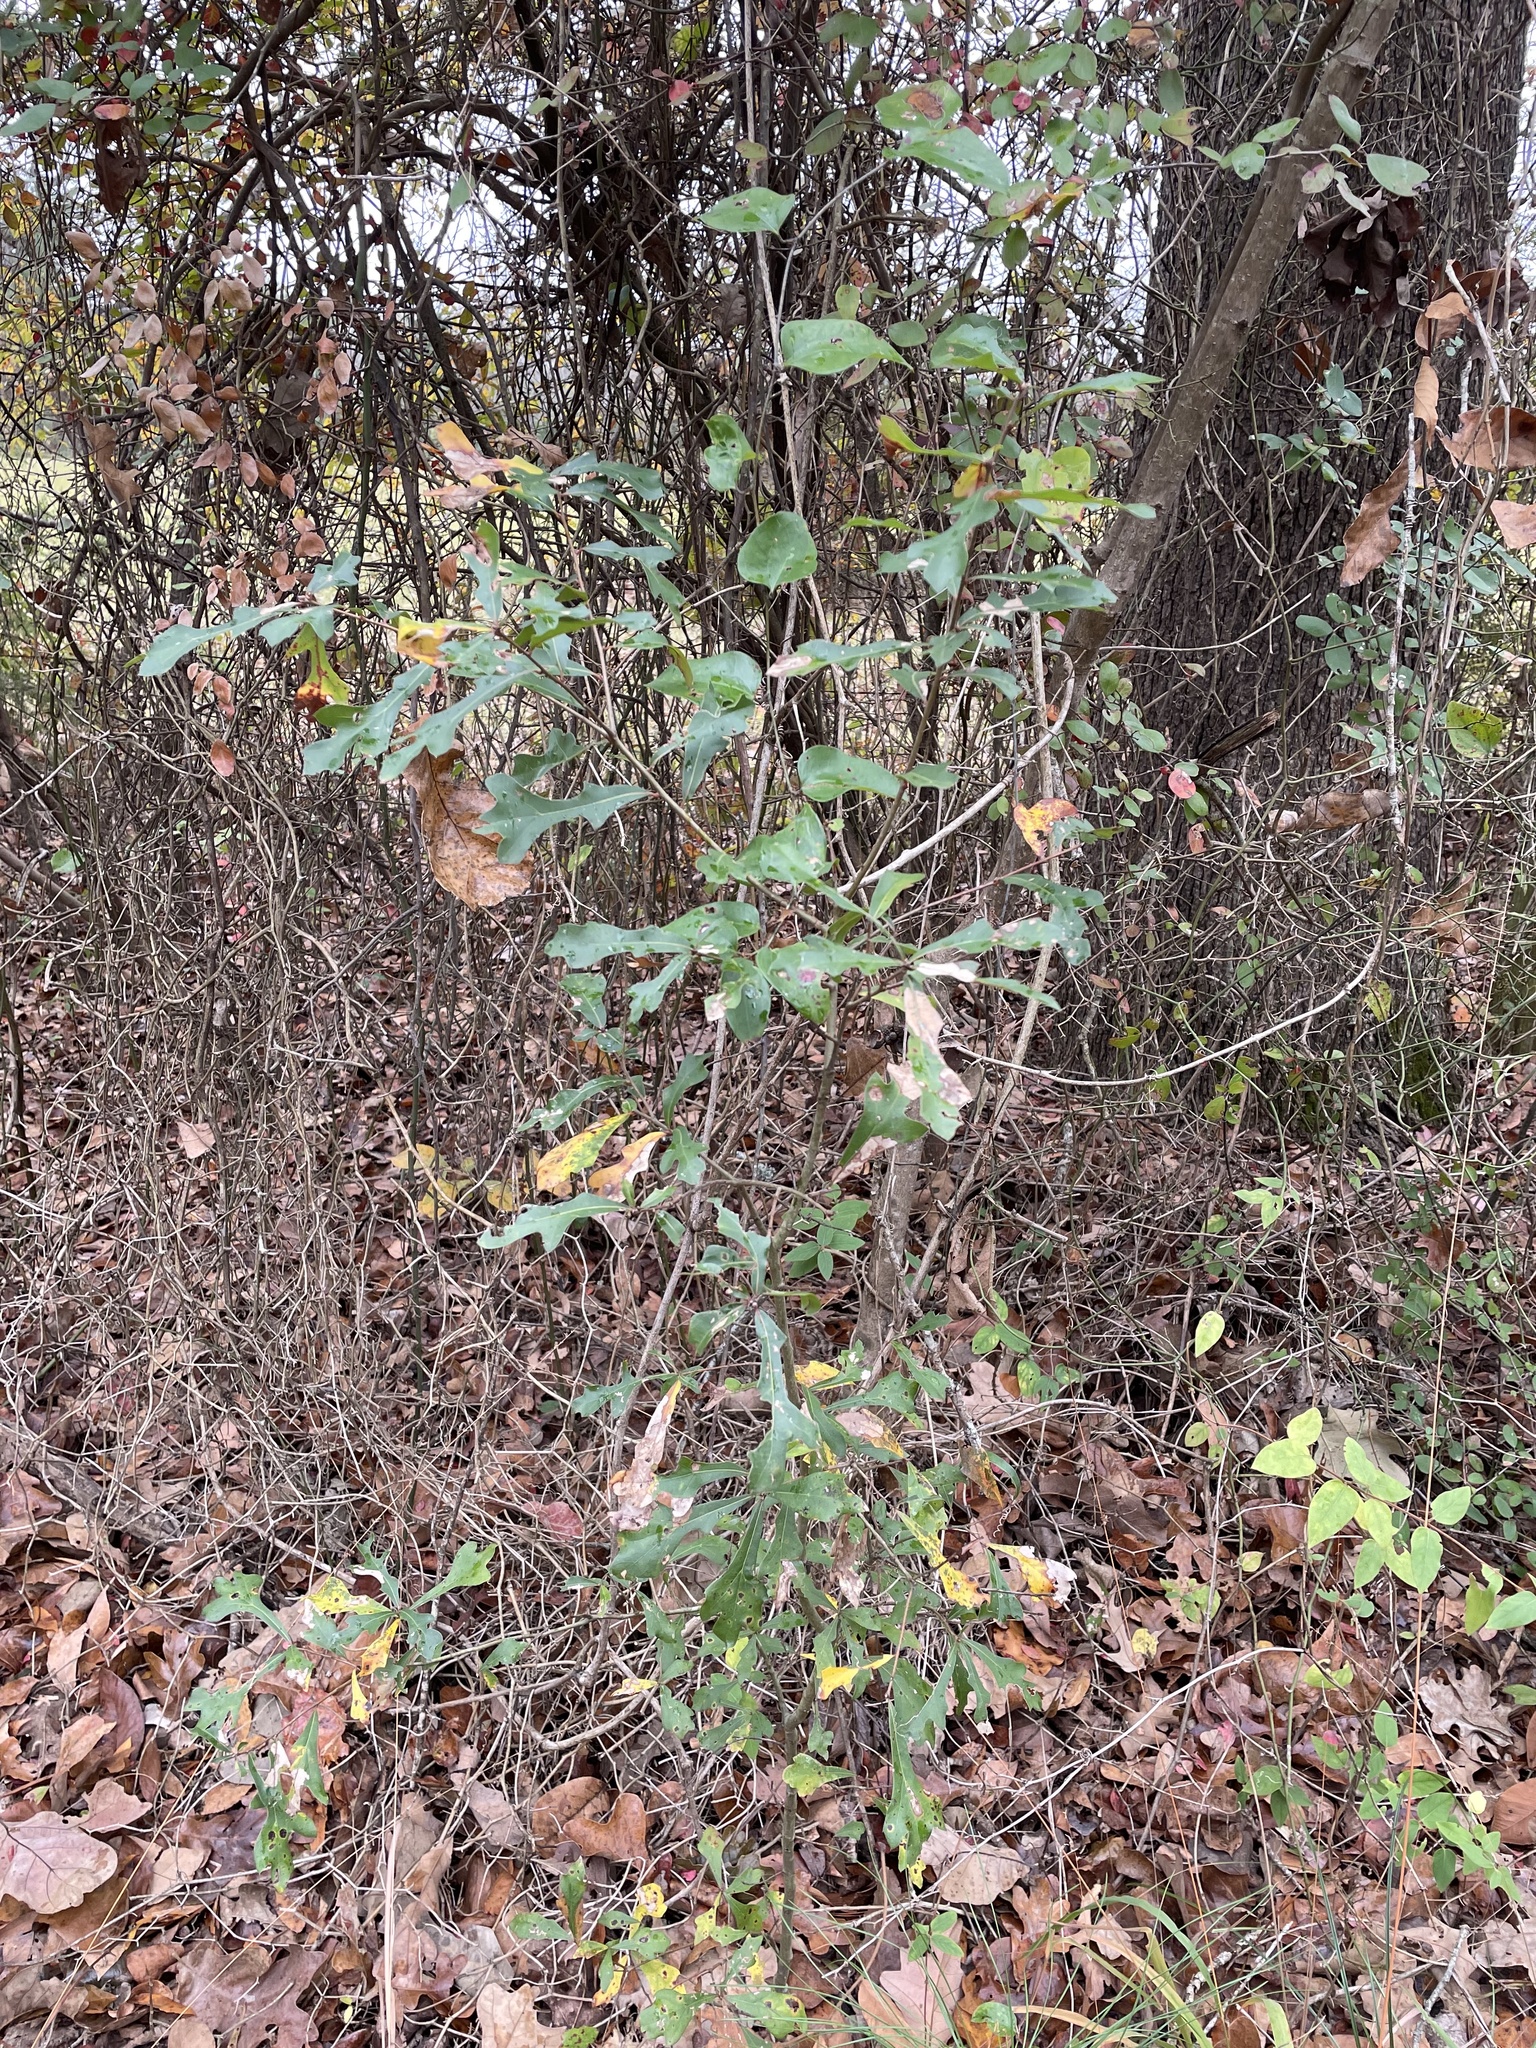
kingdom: Plantae
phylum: Tracheophyta
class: Magnoliopsida
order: Fagales
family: Fagaceae
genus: Quercus
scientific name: Quercus nigra
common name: Water oak
